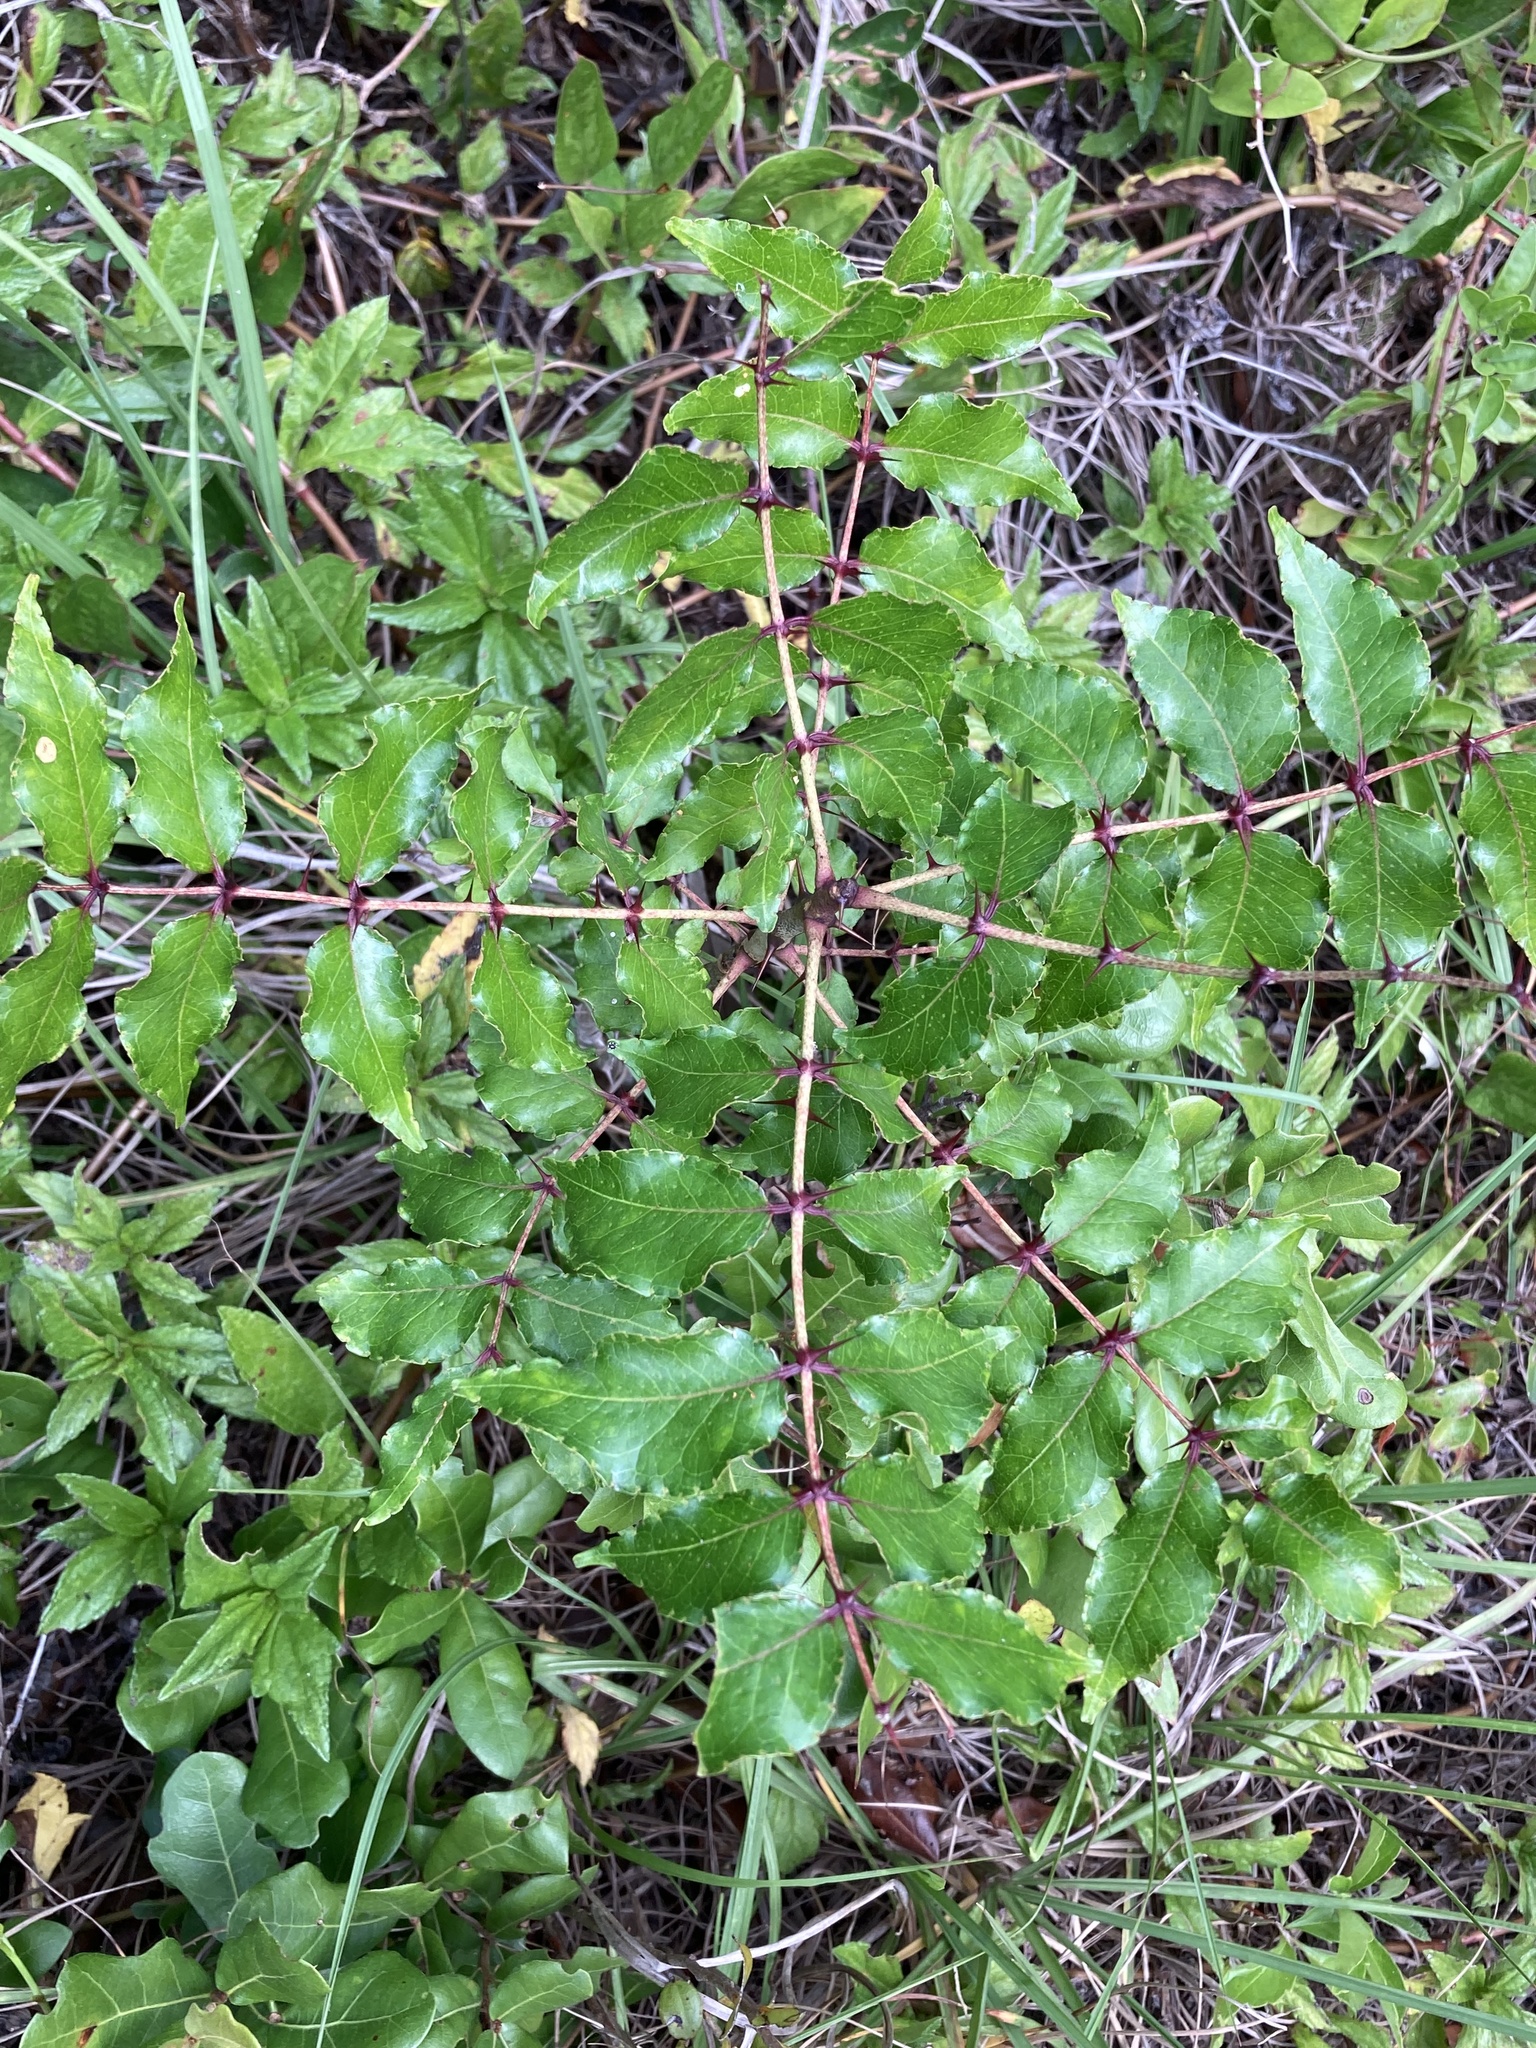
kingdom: Plantae
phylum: Tracheophyta
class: Magnoliopsida
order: Sapindales
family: Rutaceae
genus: Zanthoxylum
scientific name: Zanthoxylum clava-herculis
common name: Hercules'-club
